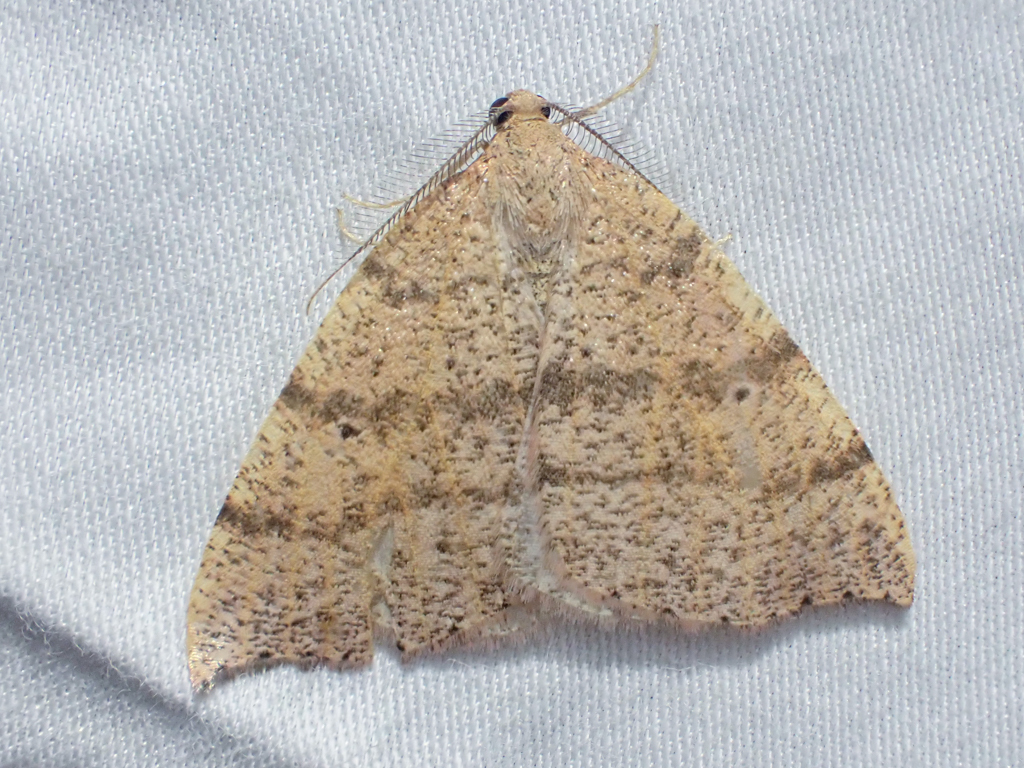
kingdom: Animalia
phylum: Arthropoda
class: Insecta
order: Lepidoptera
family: Geometridae
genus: Drepanulatrix
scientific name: Drepanulatrix falcataria
